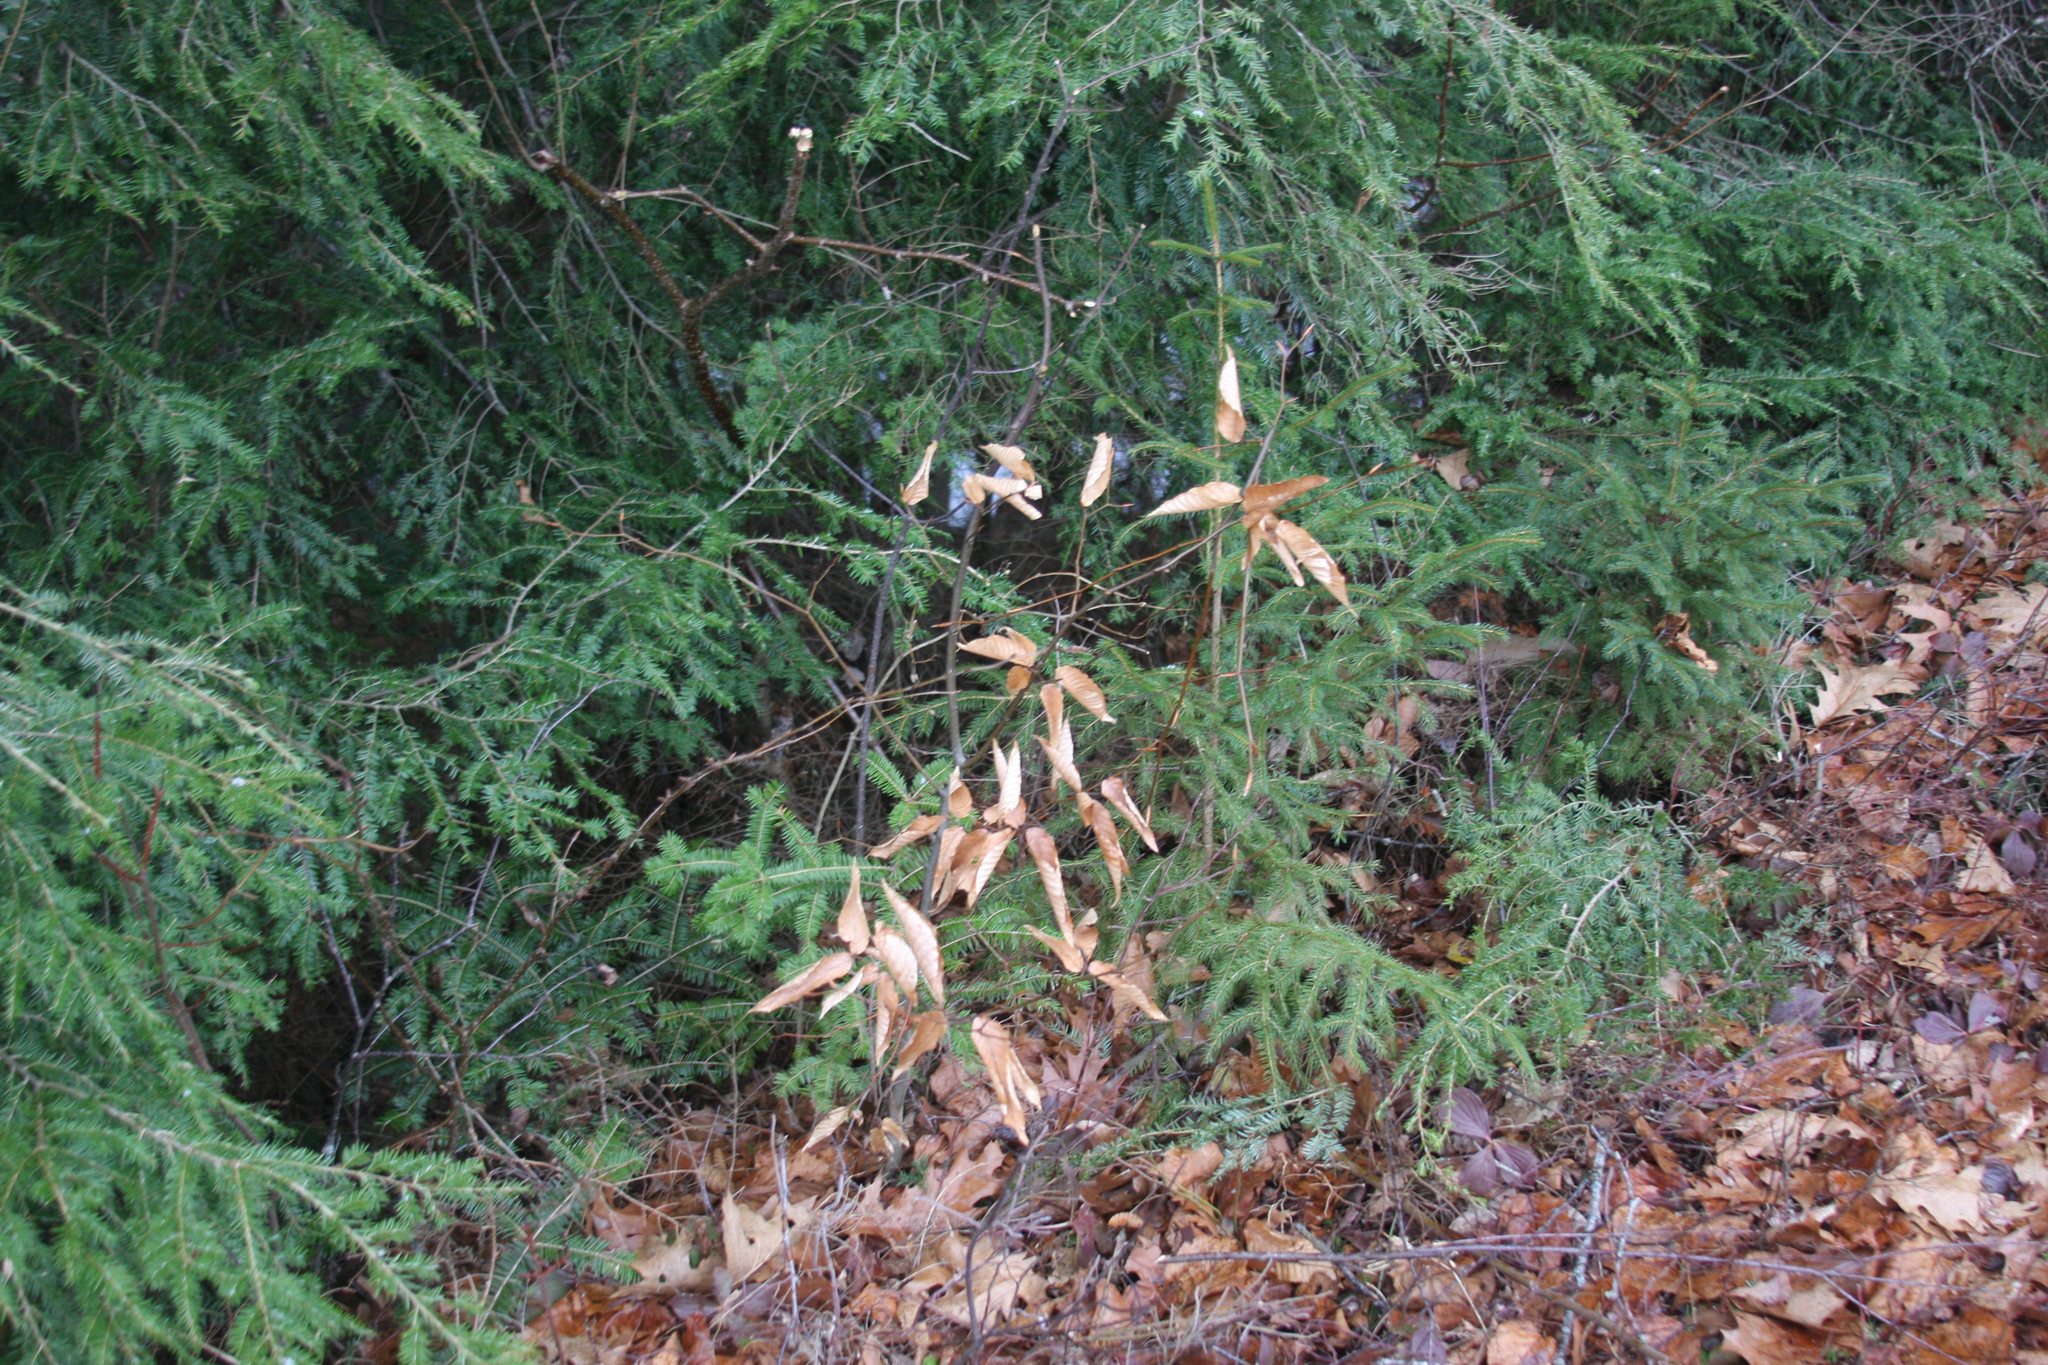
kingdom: Plantae
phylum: Tracheophyta
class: Magnoliopsida
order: Fagales
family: Fagaceae
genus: Fagus
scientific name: Fagus grandifolia
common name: American beech
